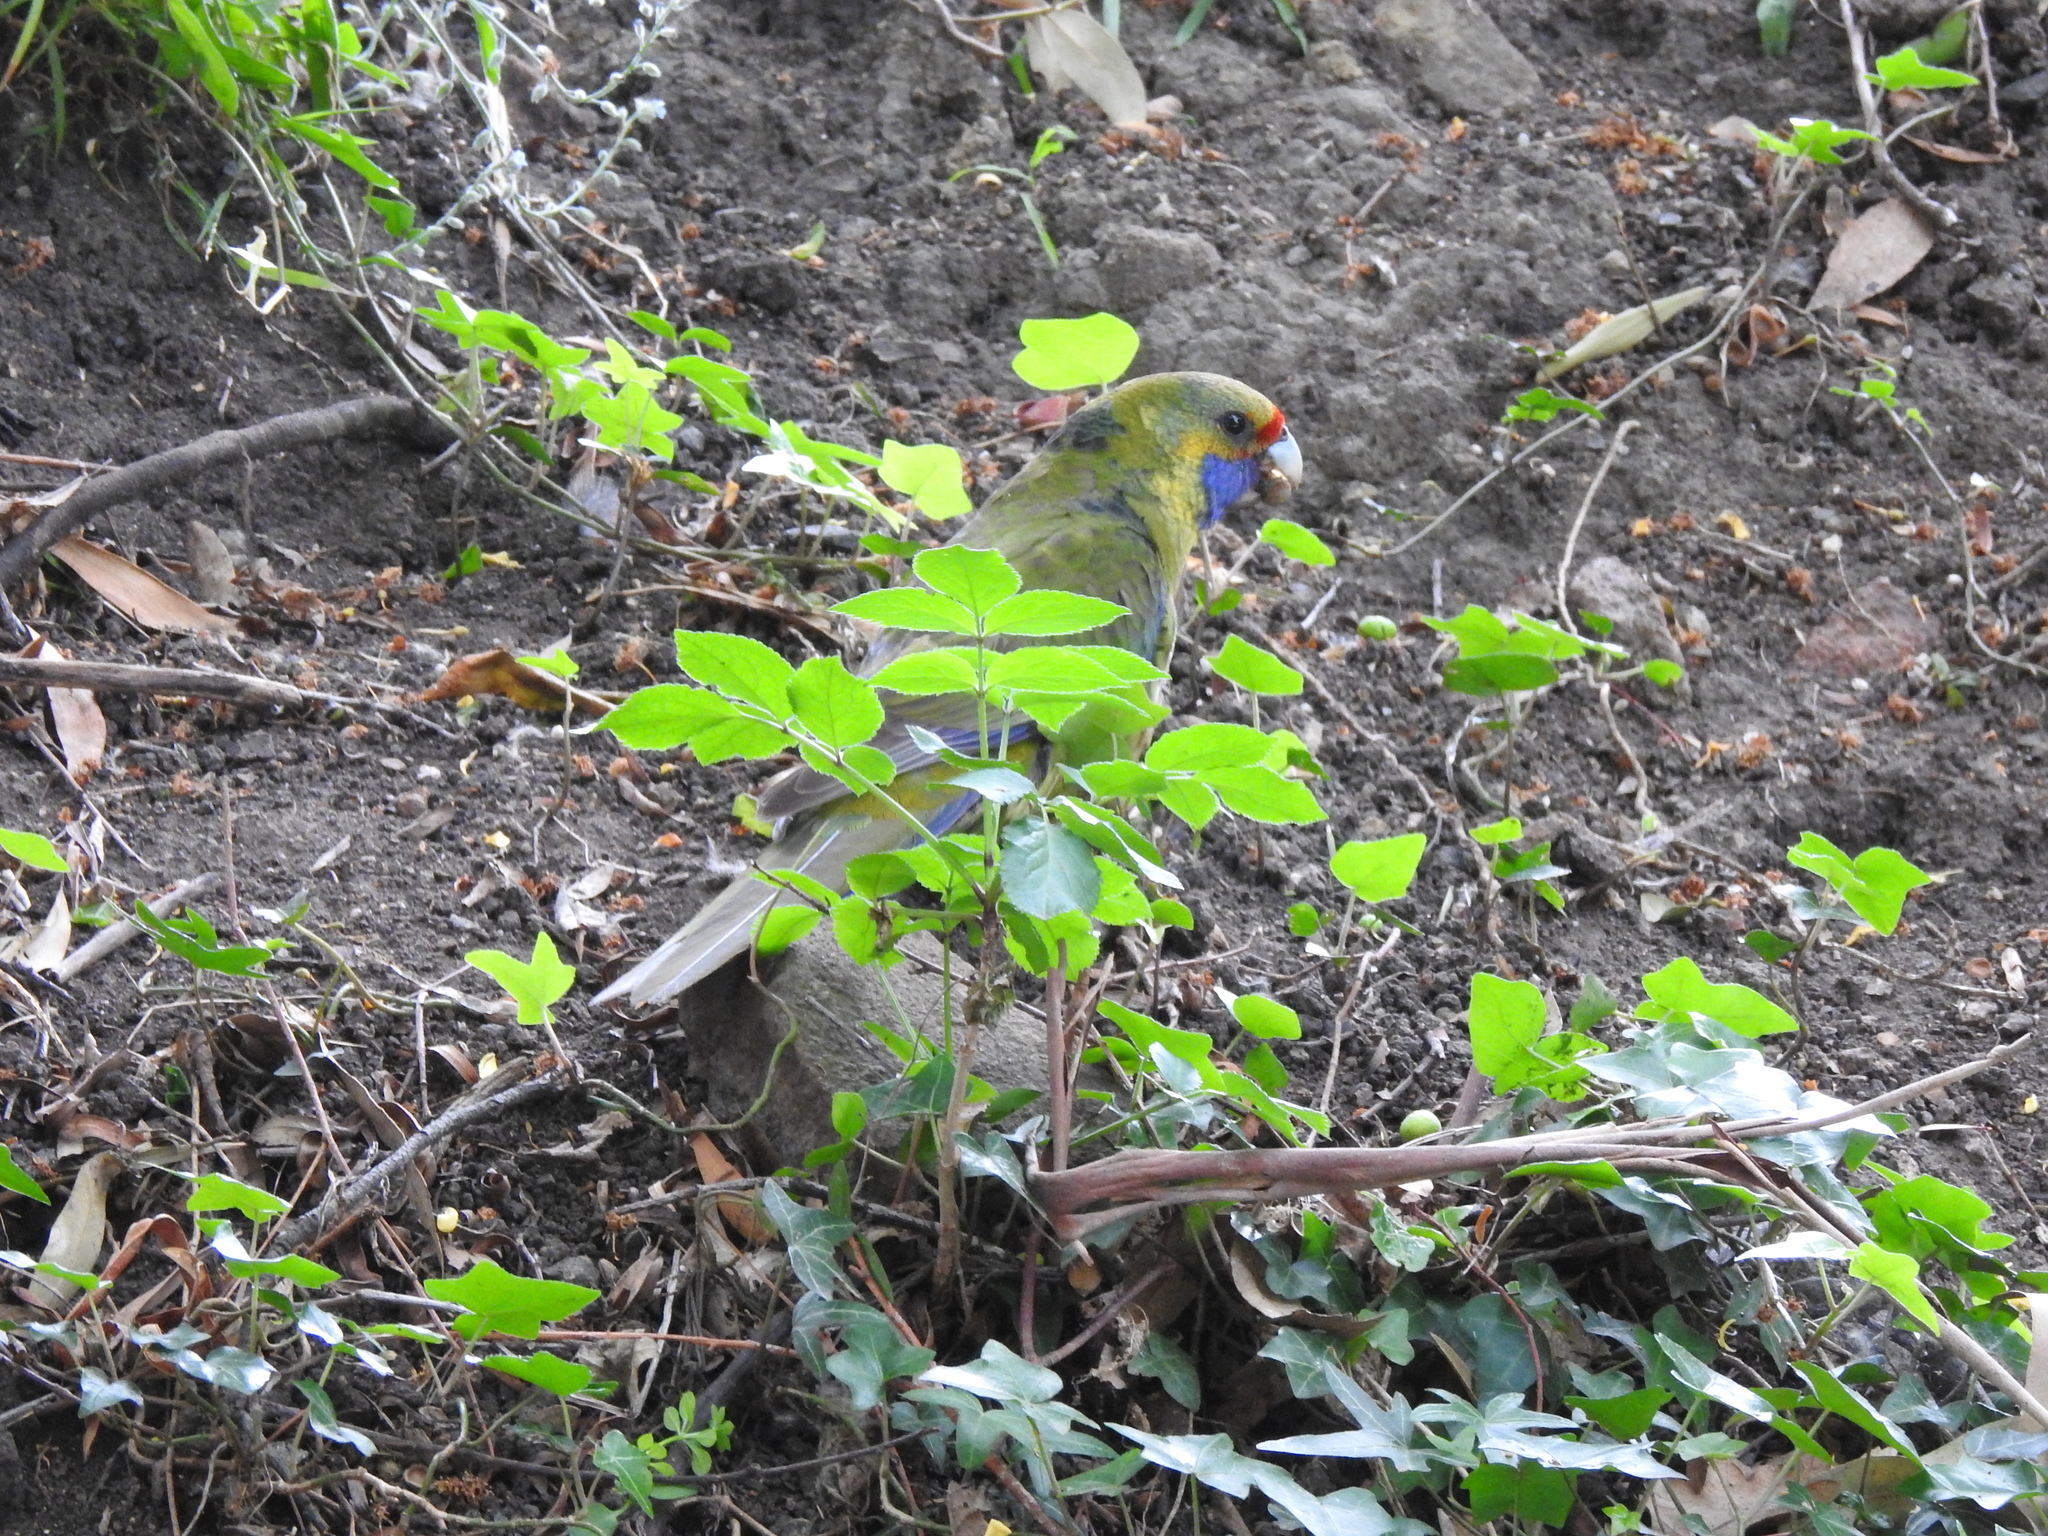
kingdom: Animalia
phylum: Chordata
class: Aves
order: Psittaciformes
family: Psittacidae
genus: Platycercus
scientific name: Platycercus caledonicus
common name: Green rosella
